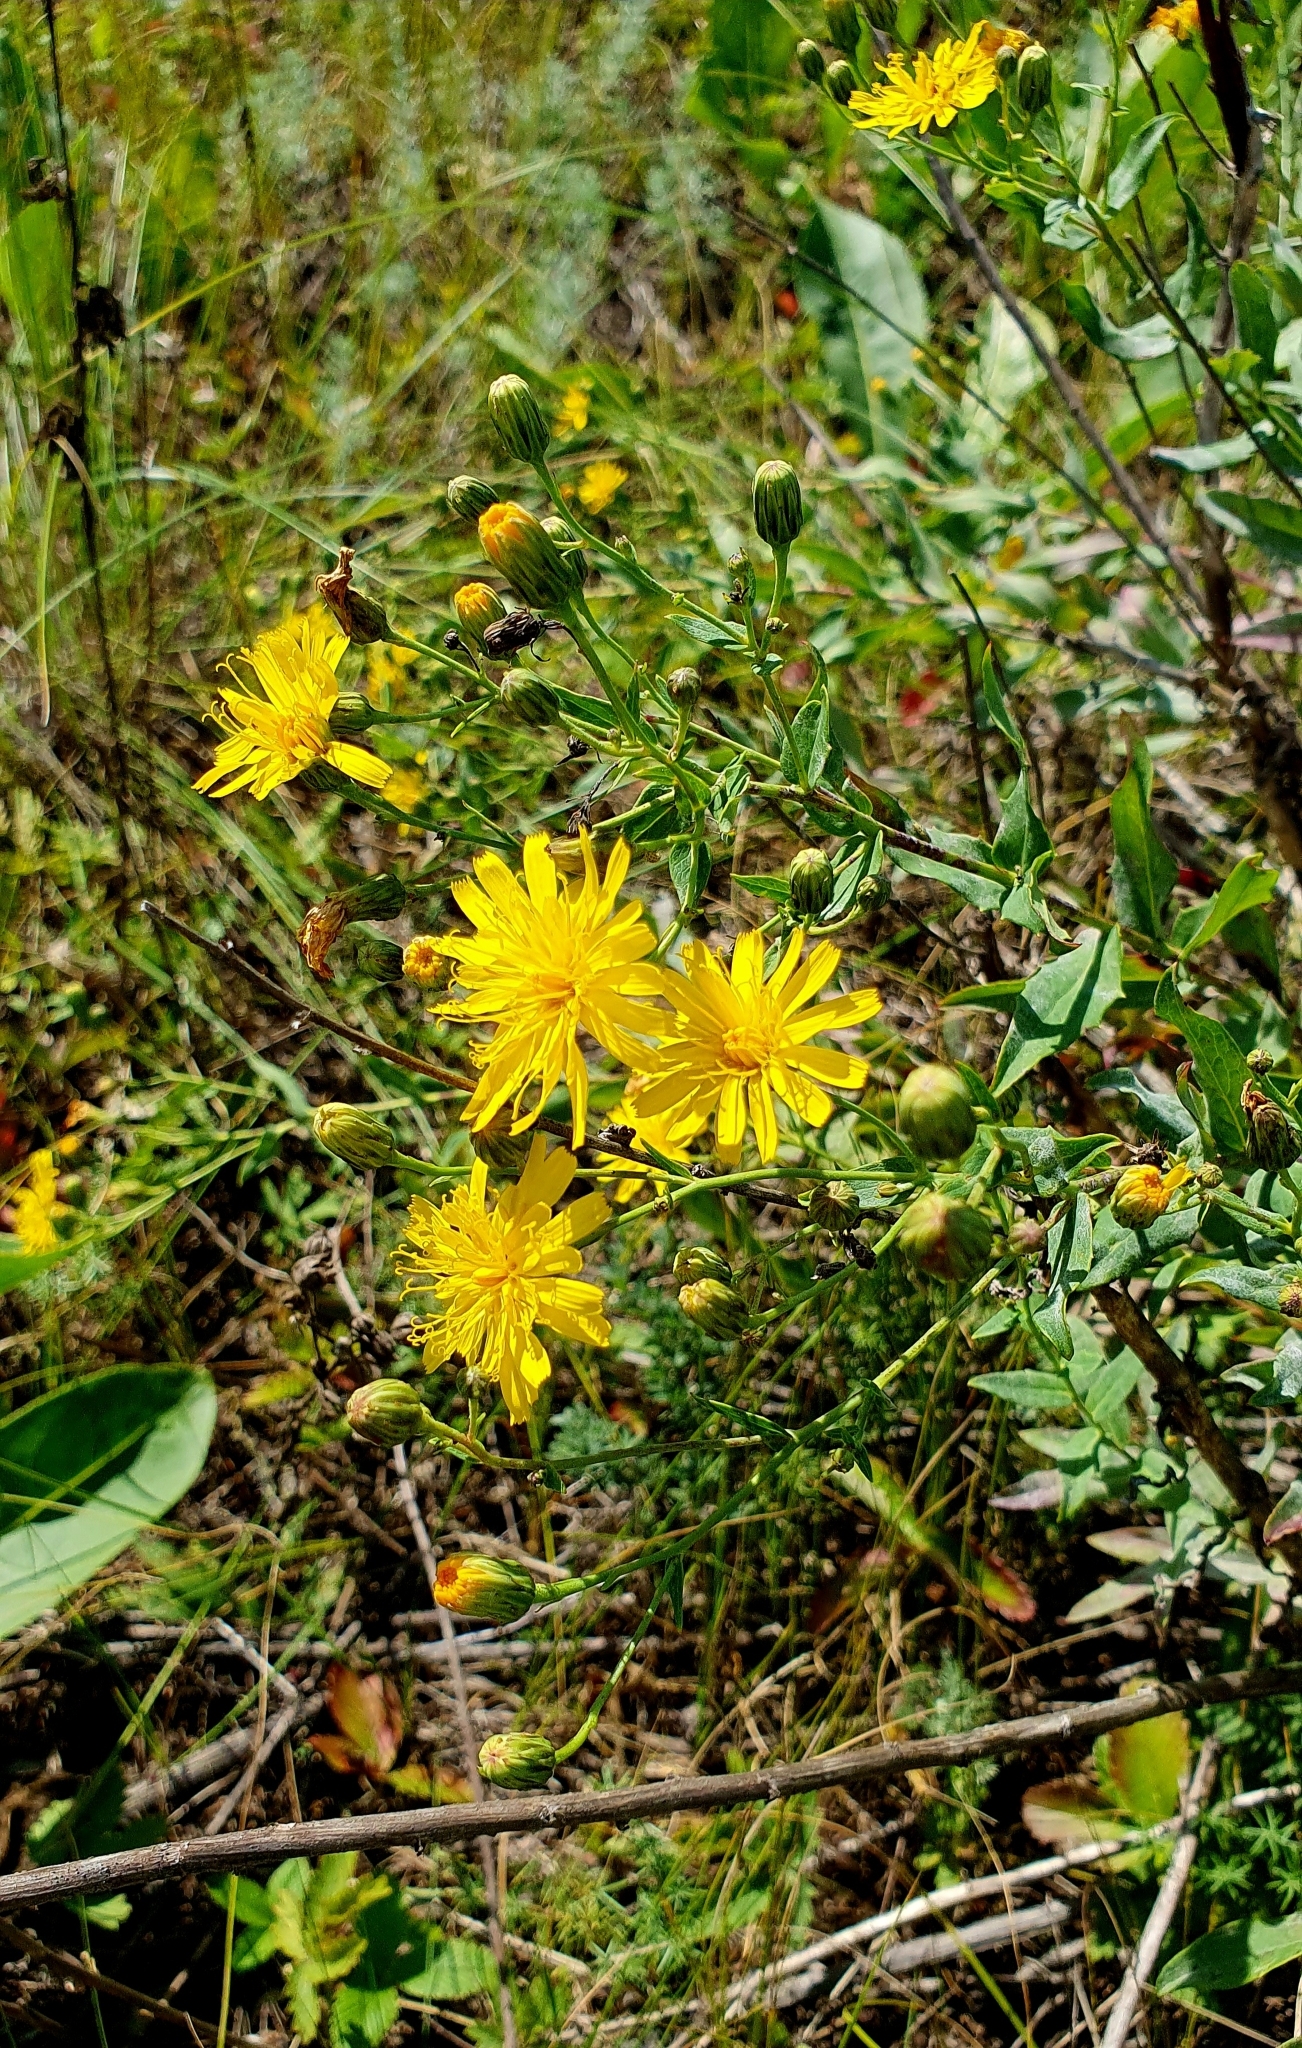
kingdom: Plantae
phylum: Tracheophyta
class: Magnoliopsida
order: Asterales
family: Asteraceae
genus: Hieracium
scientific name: Hieracium robustum
